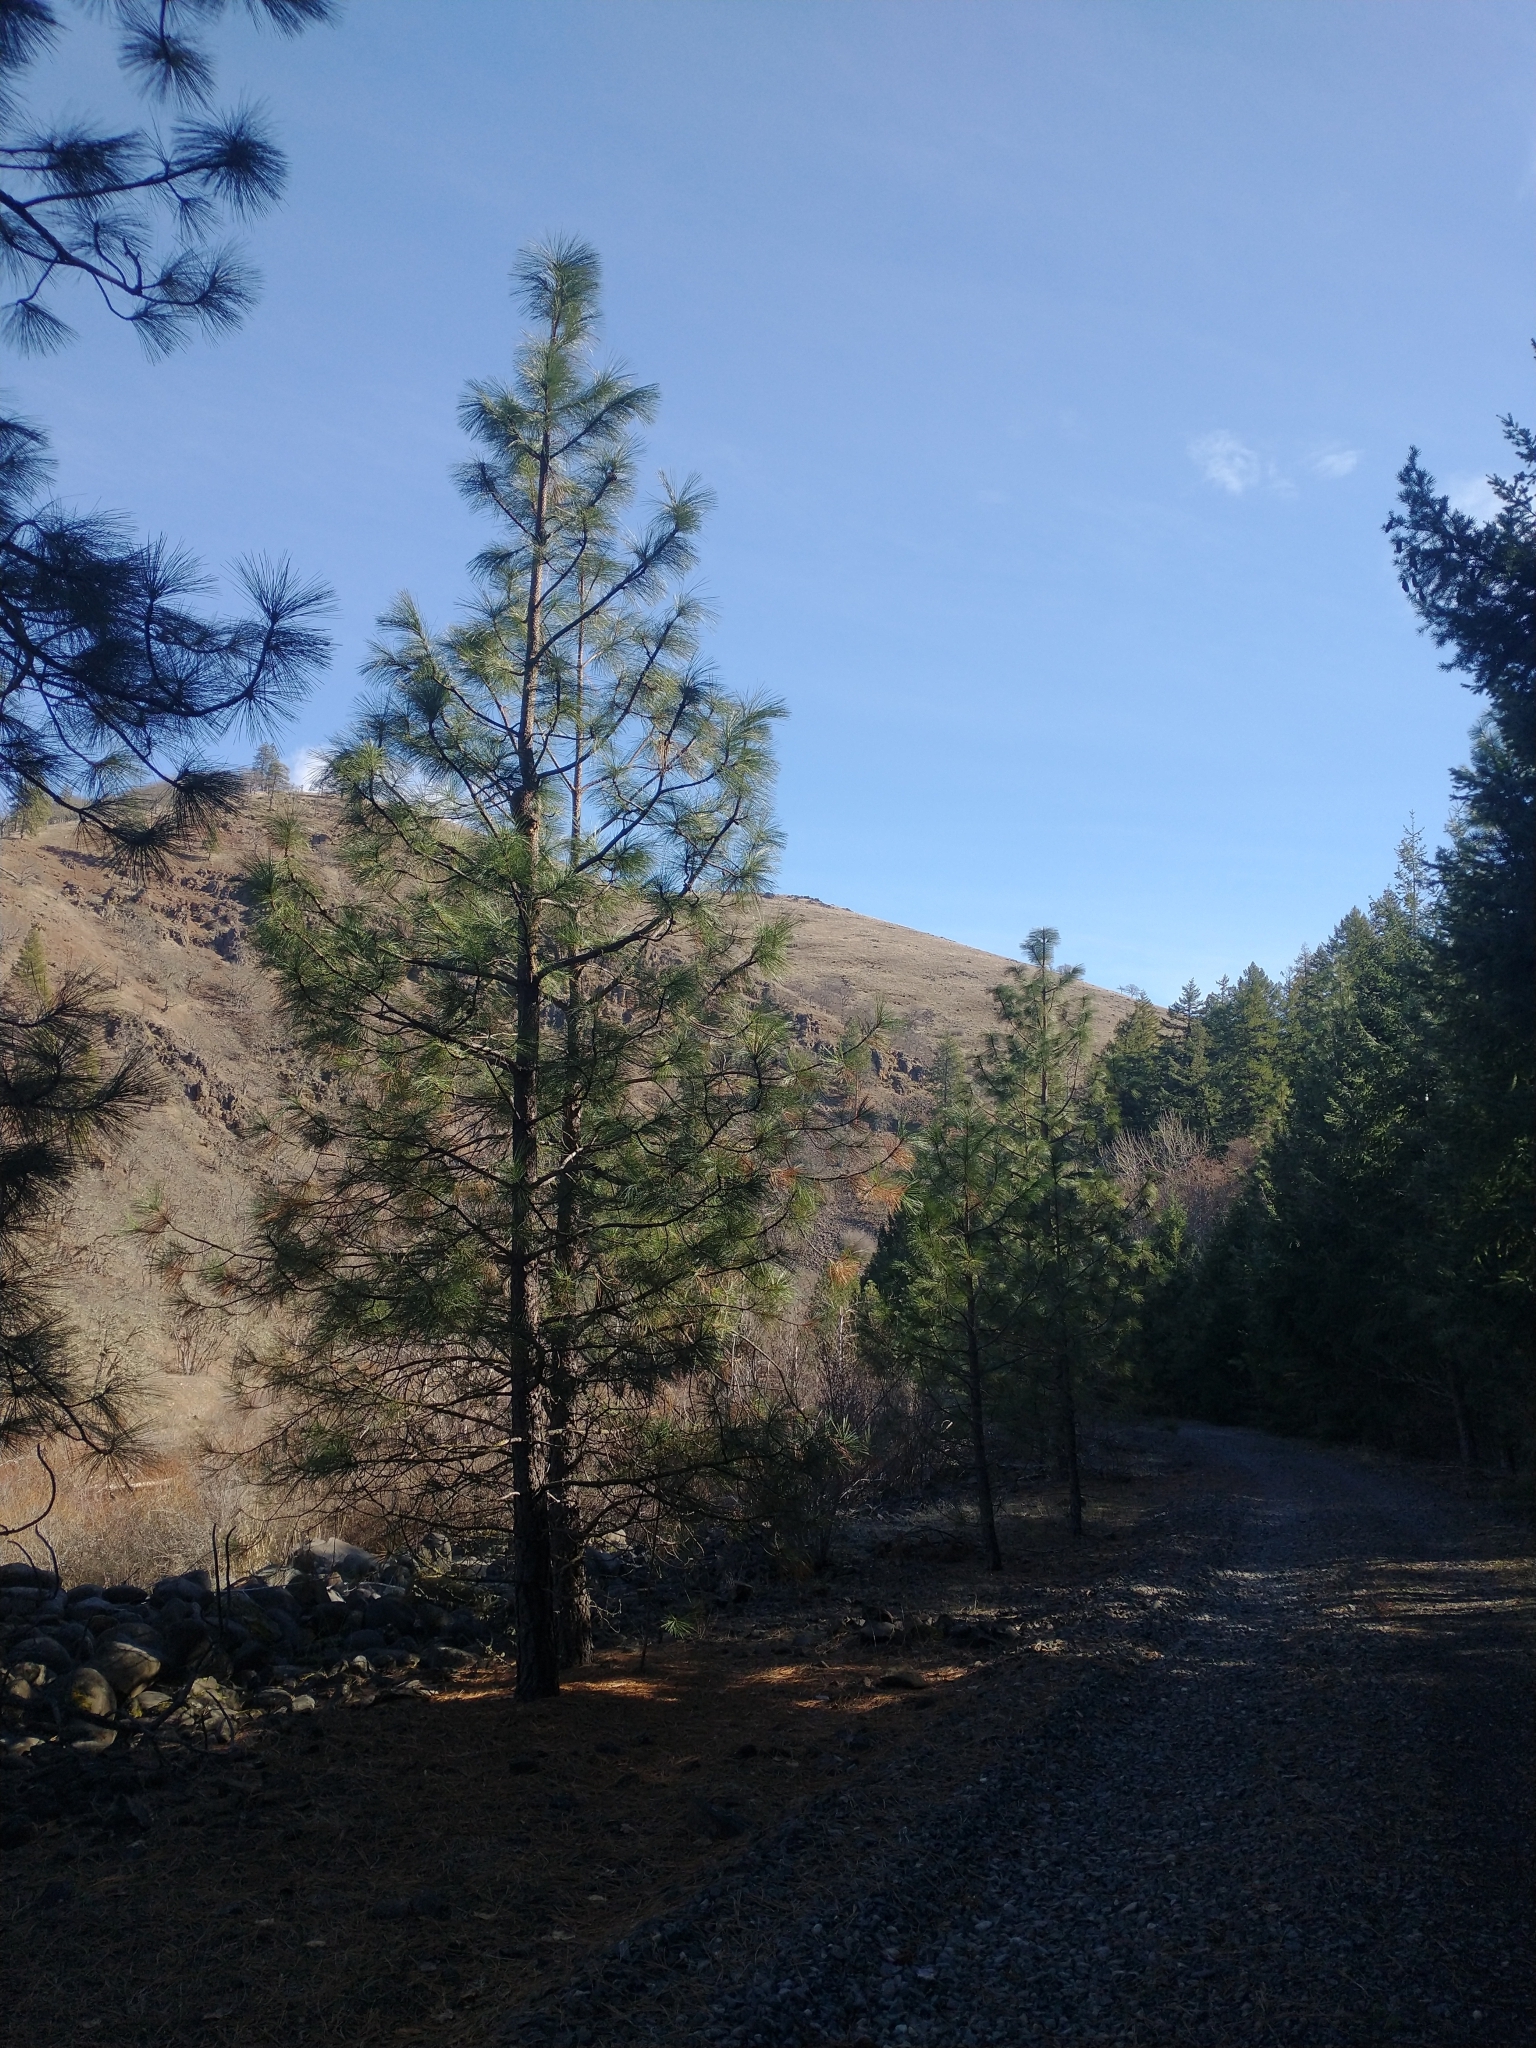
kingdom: Plantae
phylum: Tracheophyta
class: Pinopsida
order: Pinales
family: Pinaceae
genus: Pinus
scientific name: Pinus ponderosa
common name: Western yellow-pine
